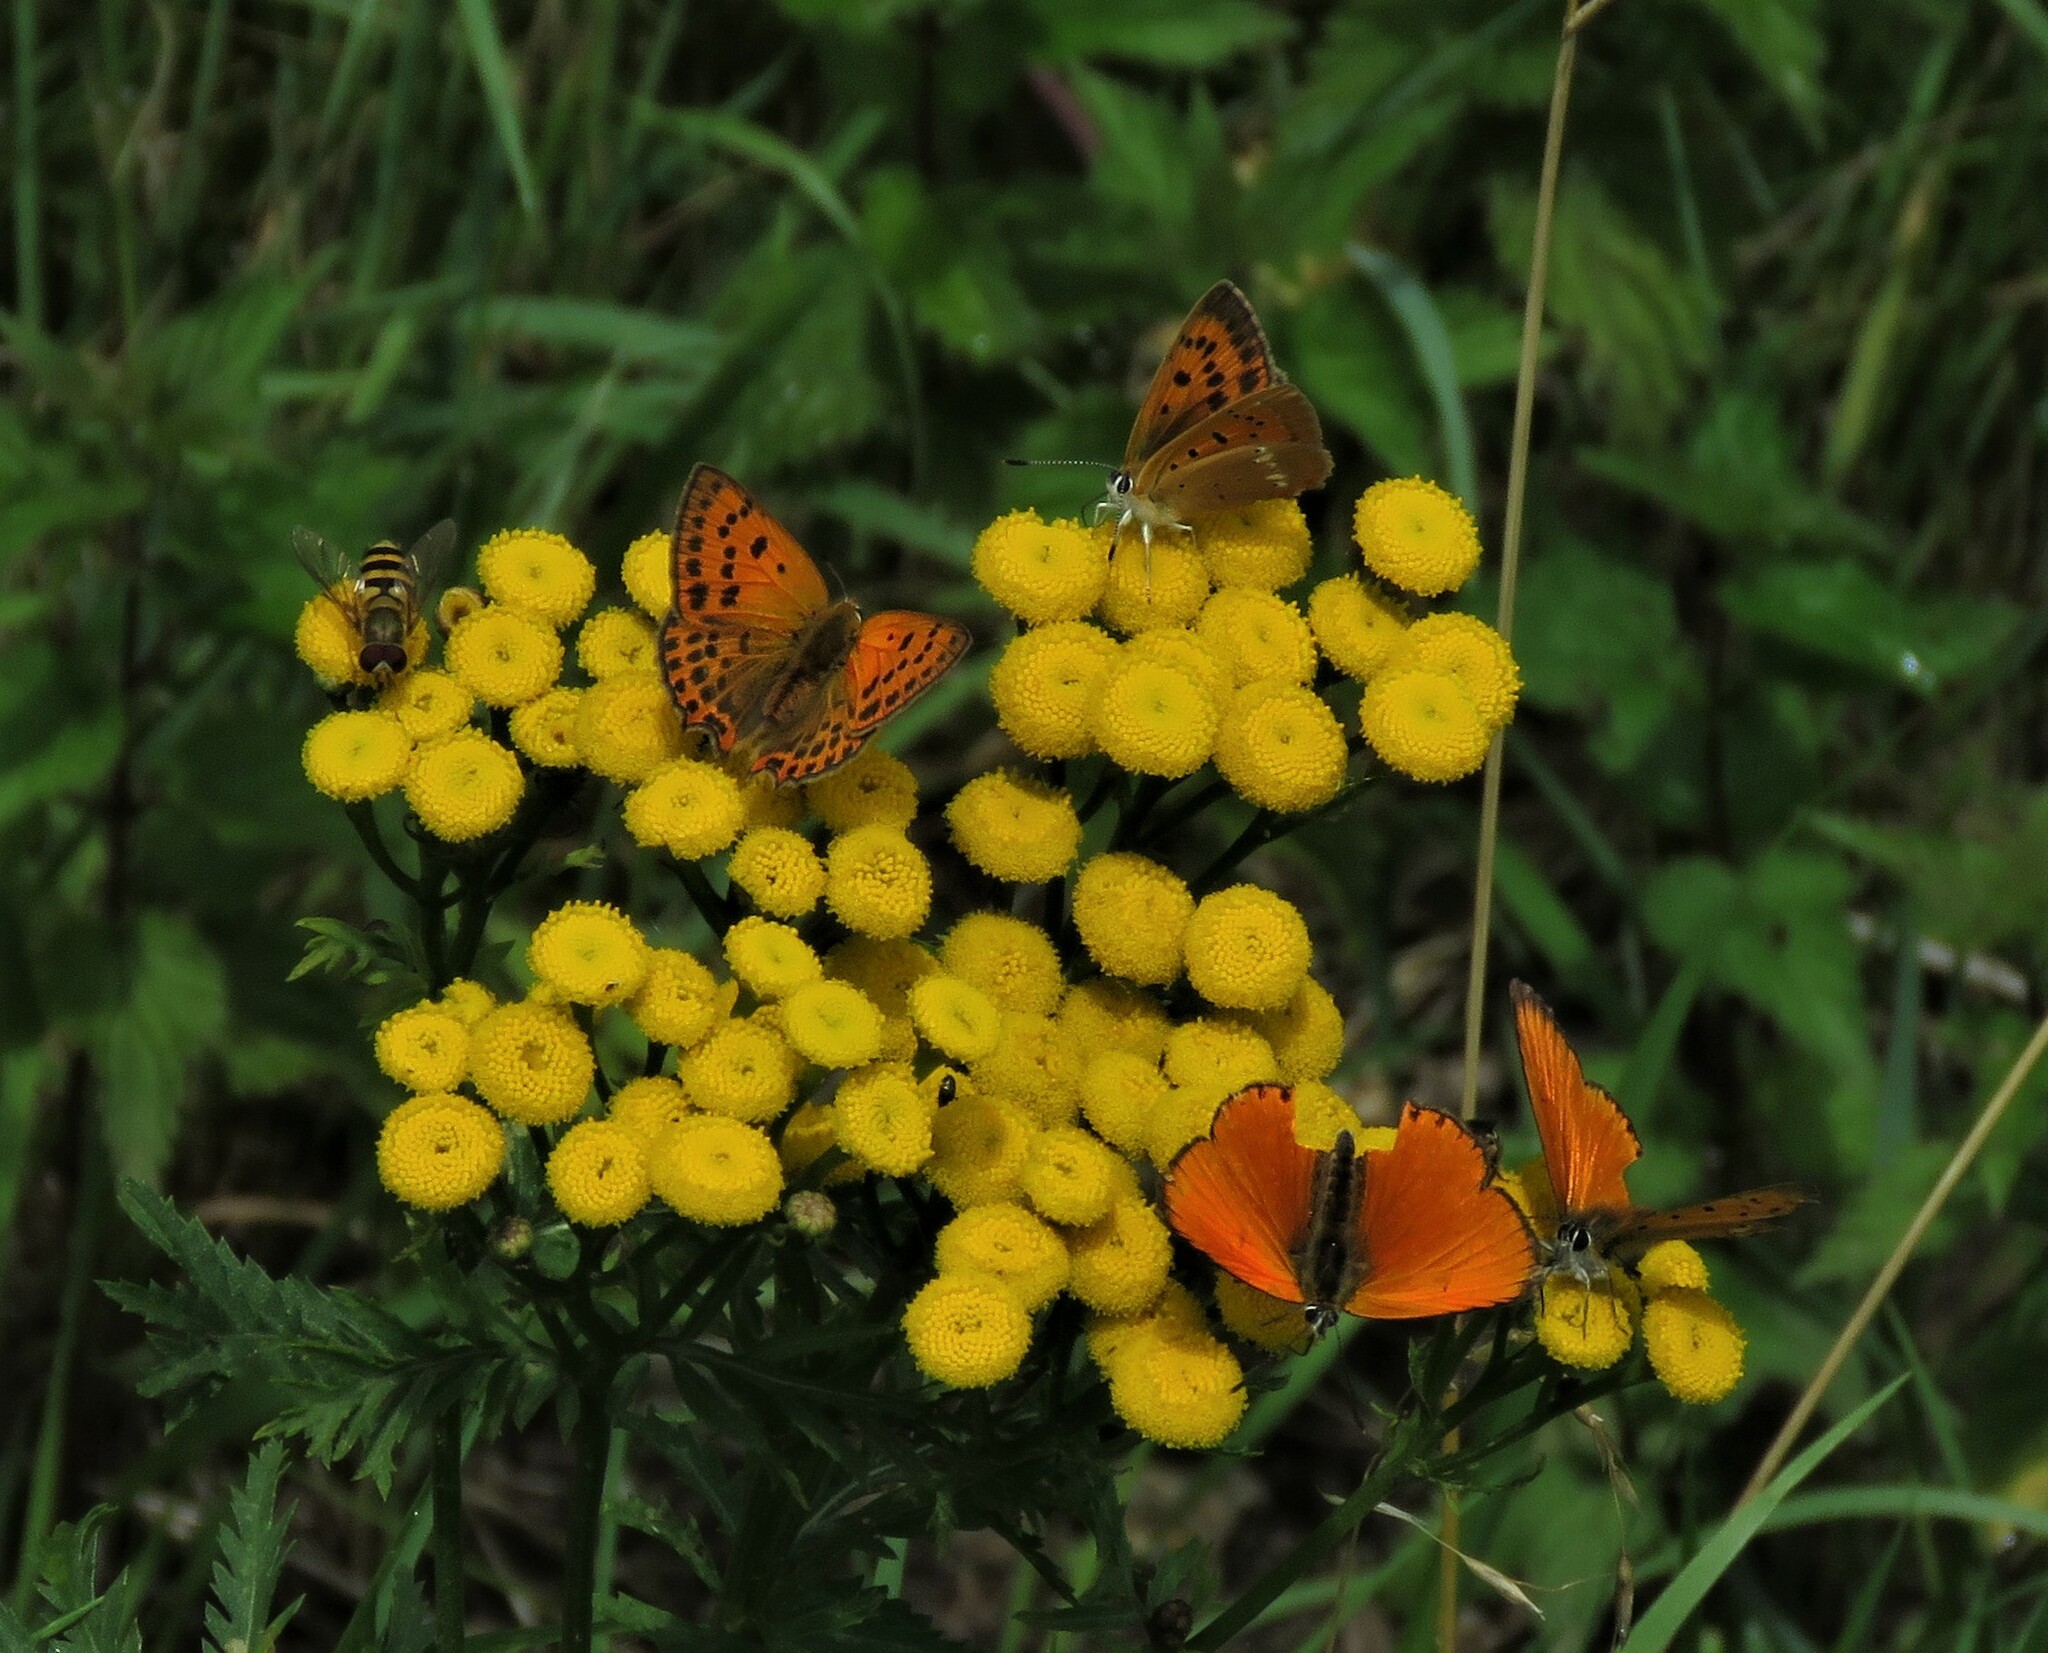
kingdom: Animalia
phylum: Arthropoda
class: Insecta
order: Lepidoptera
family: Lycaenidae
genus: Lycaena
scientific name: Lycaena virgaureae
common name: Scarce copper
